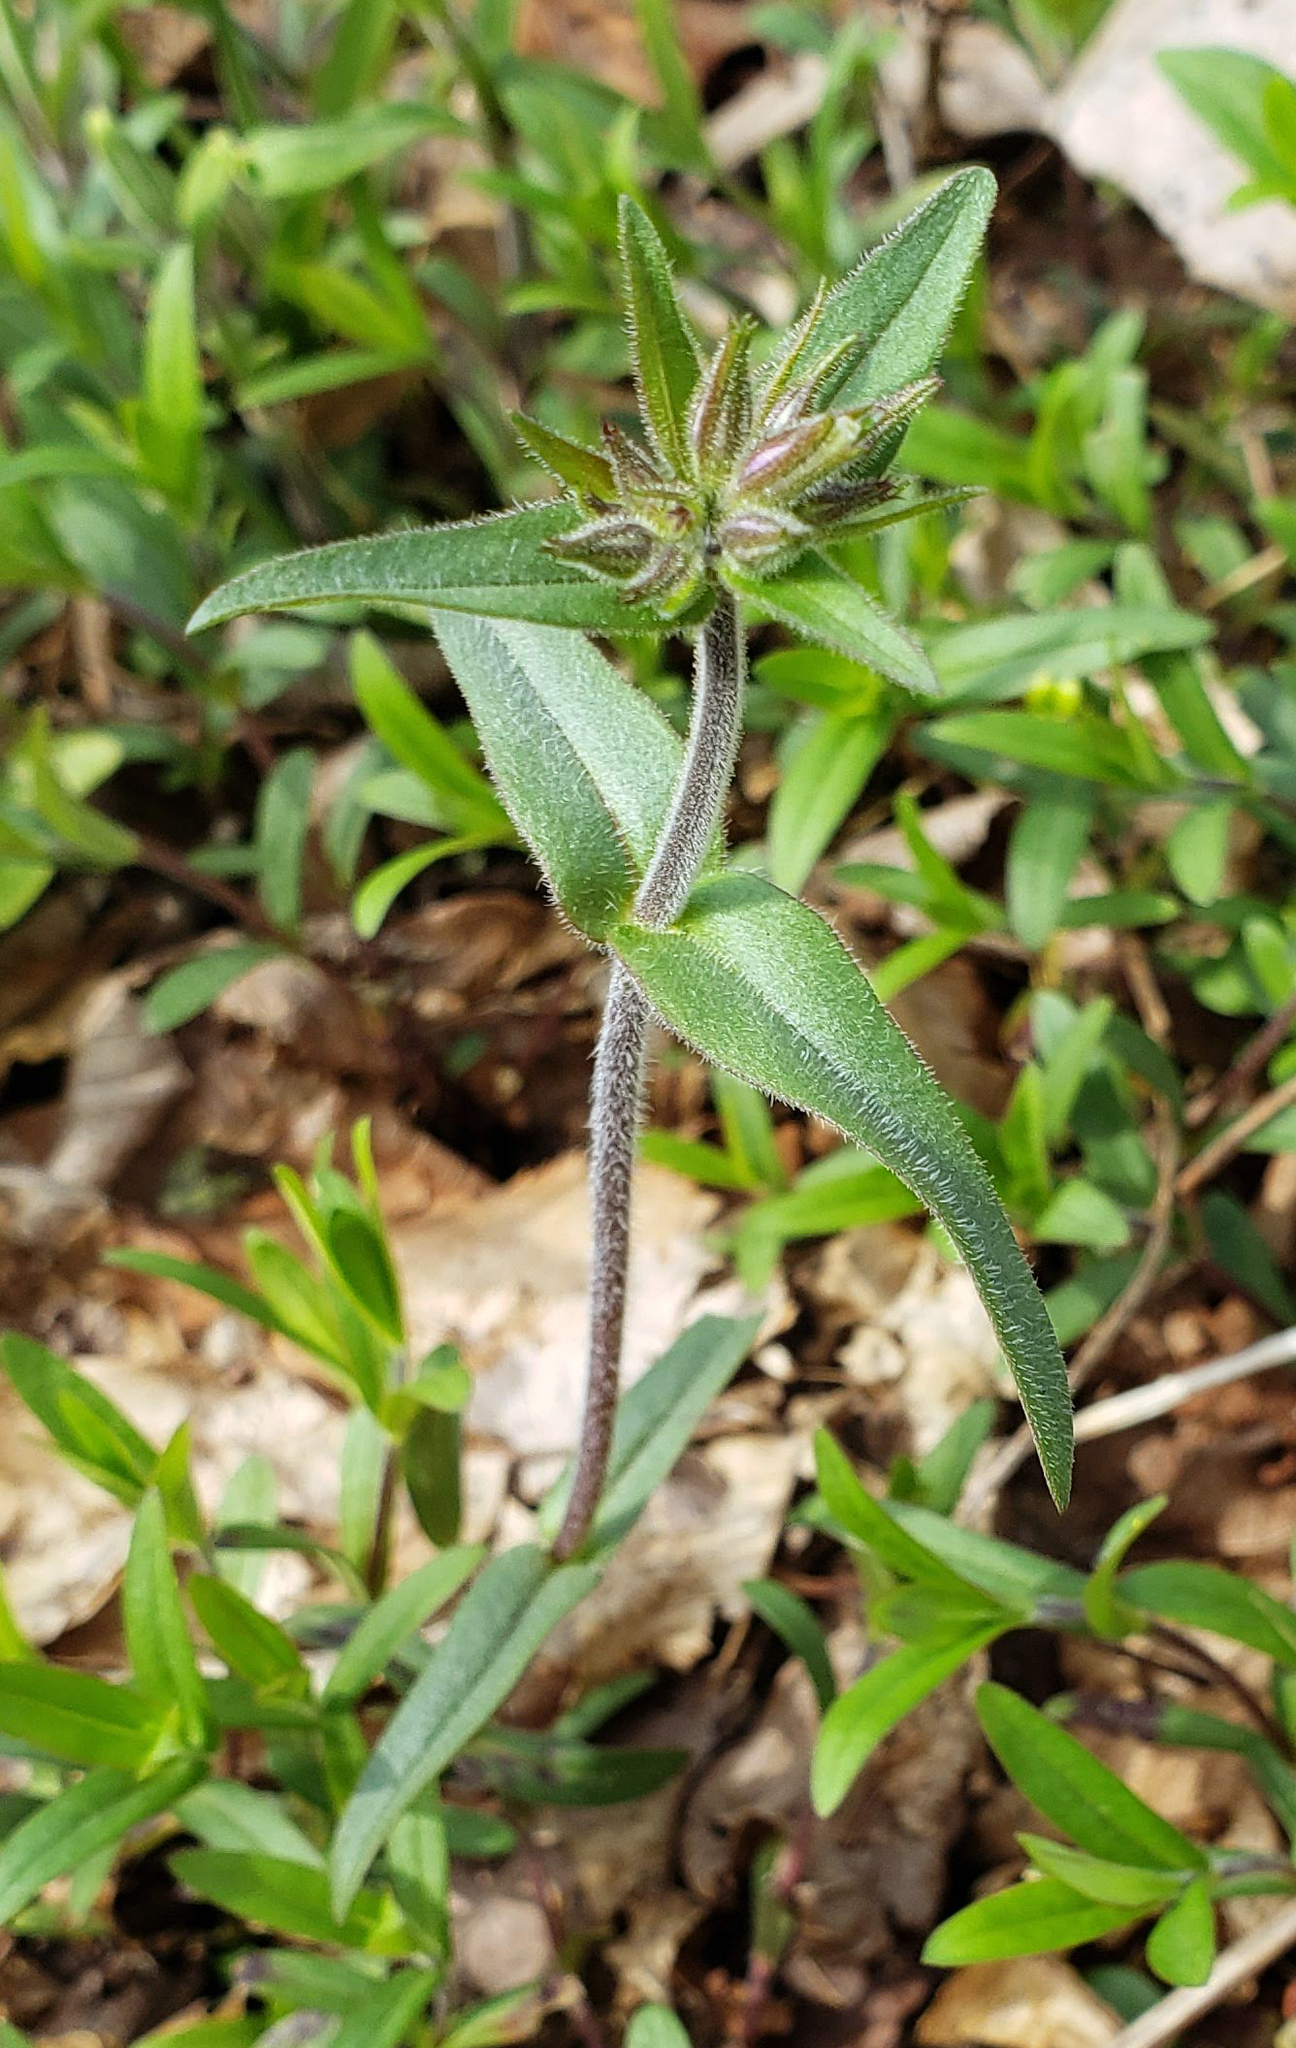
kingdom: Plantae
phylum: Tracheophyta
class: Magnoliopsida
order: Ericales
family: Polemoniaceae
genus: Phlox
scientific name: Phlox divaricata
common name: Blue phlox
